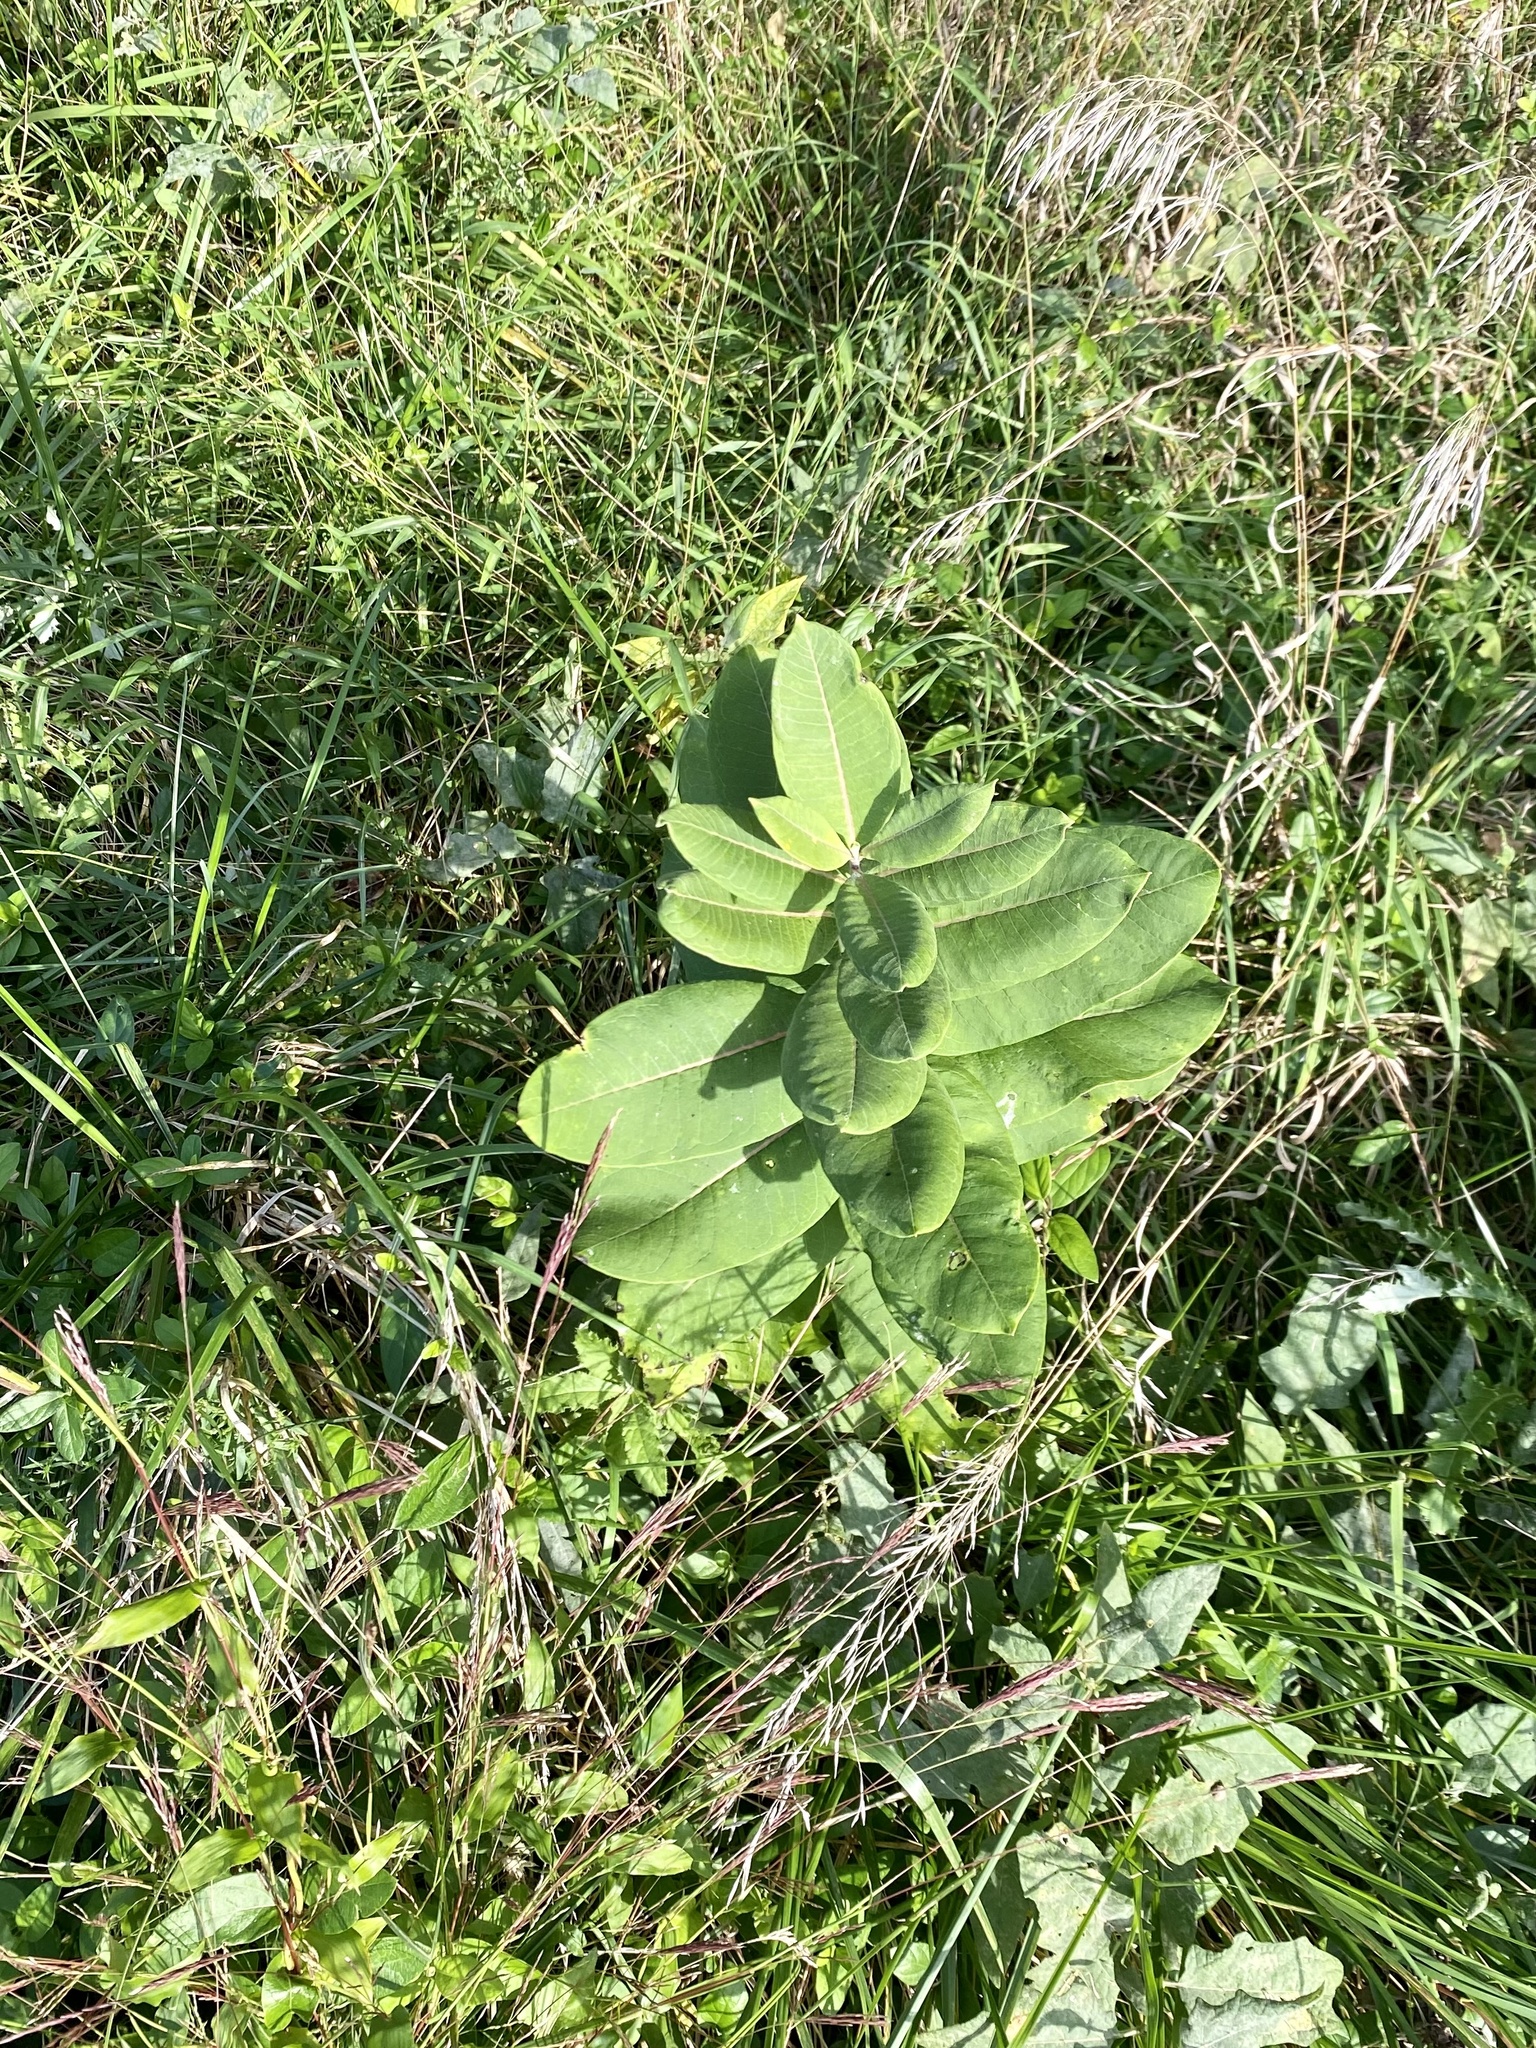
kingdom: Plantae
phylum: Tracheophyta
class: Magnoliopsida
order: Gentianales
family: Apocynaceae
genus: Asclepias
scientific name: Asclepias syriaca
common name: Common milkweed
